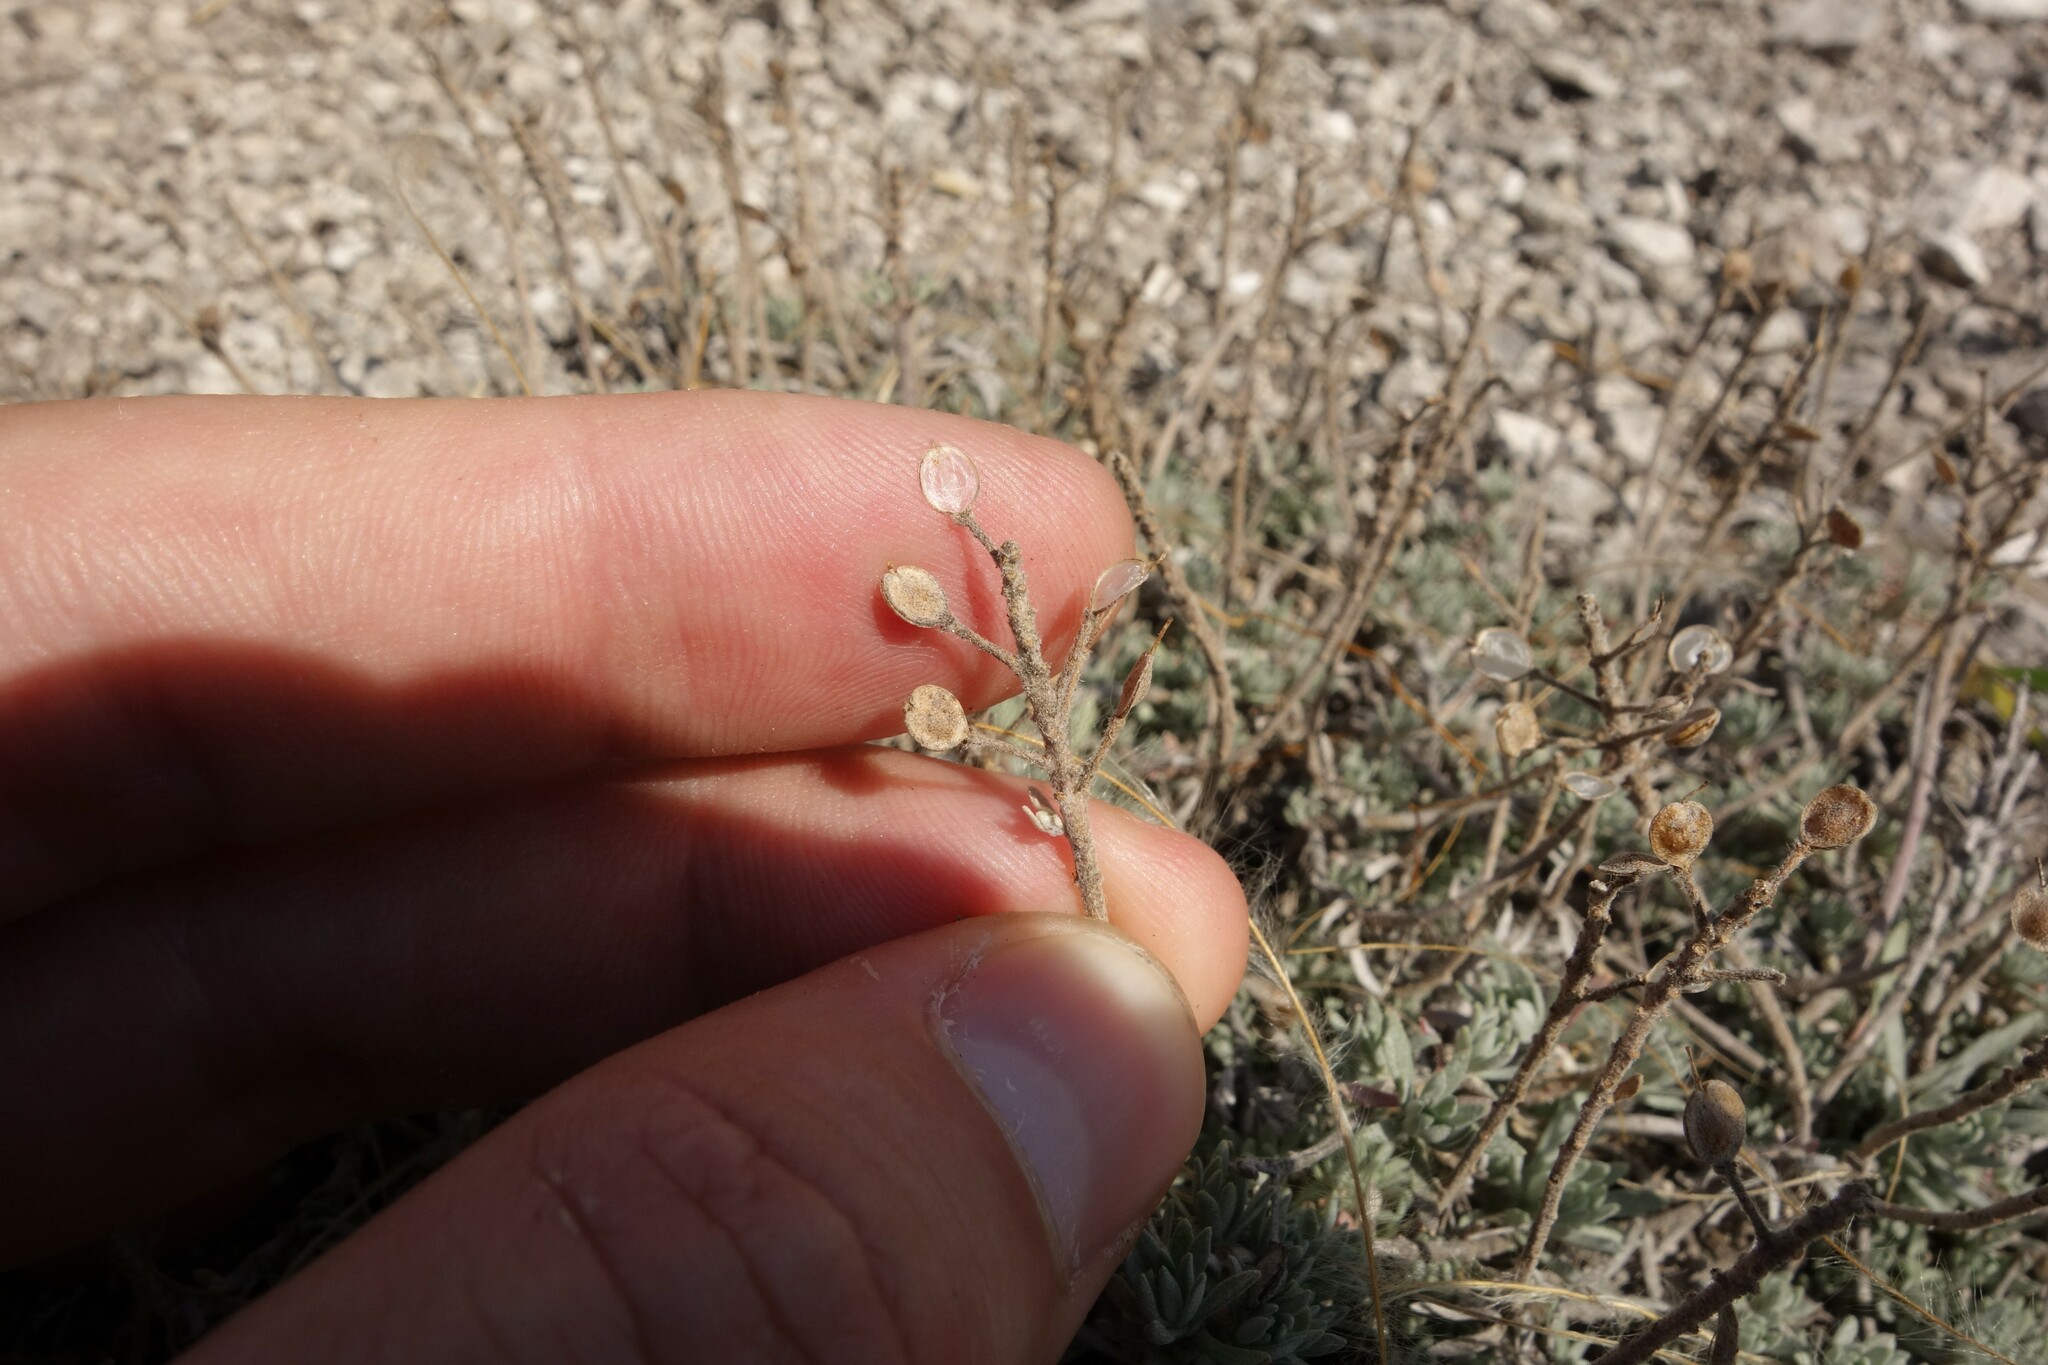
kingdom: Plantae
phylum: Tracheophyta
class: Magnoliopsida
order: Brassicales
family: Brassicaceae
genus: Alyssum
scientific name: Alyssum lenense
